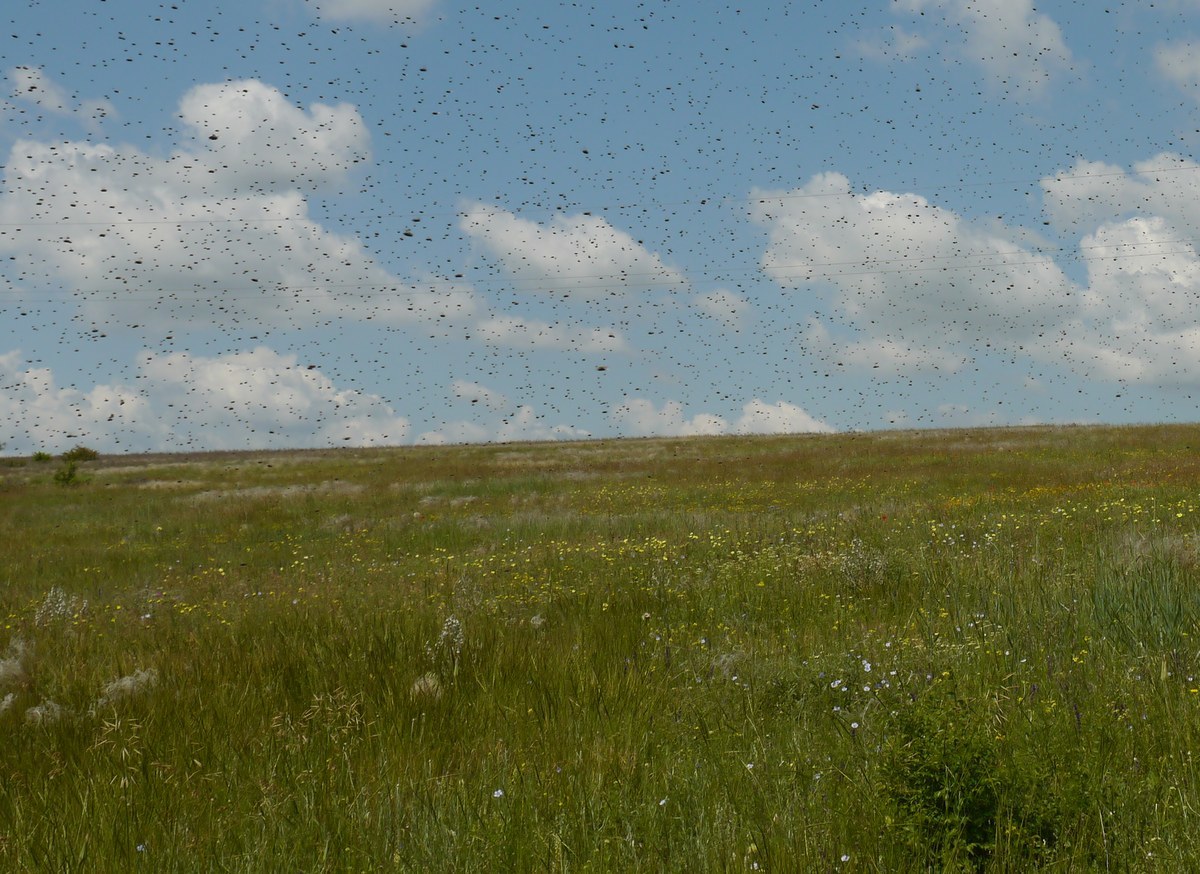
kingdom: Animalia
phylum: Arthropoda
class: Insecta
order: Hymenoptera
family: Apidae
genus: Apis
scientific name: Apis mellifera
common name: Honey bee
